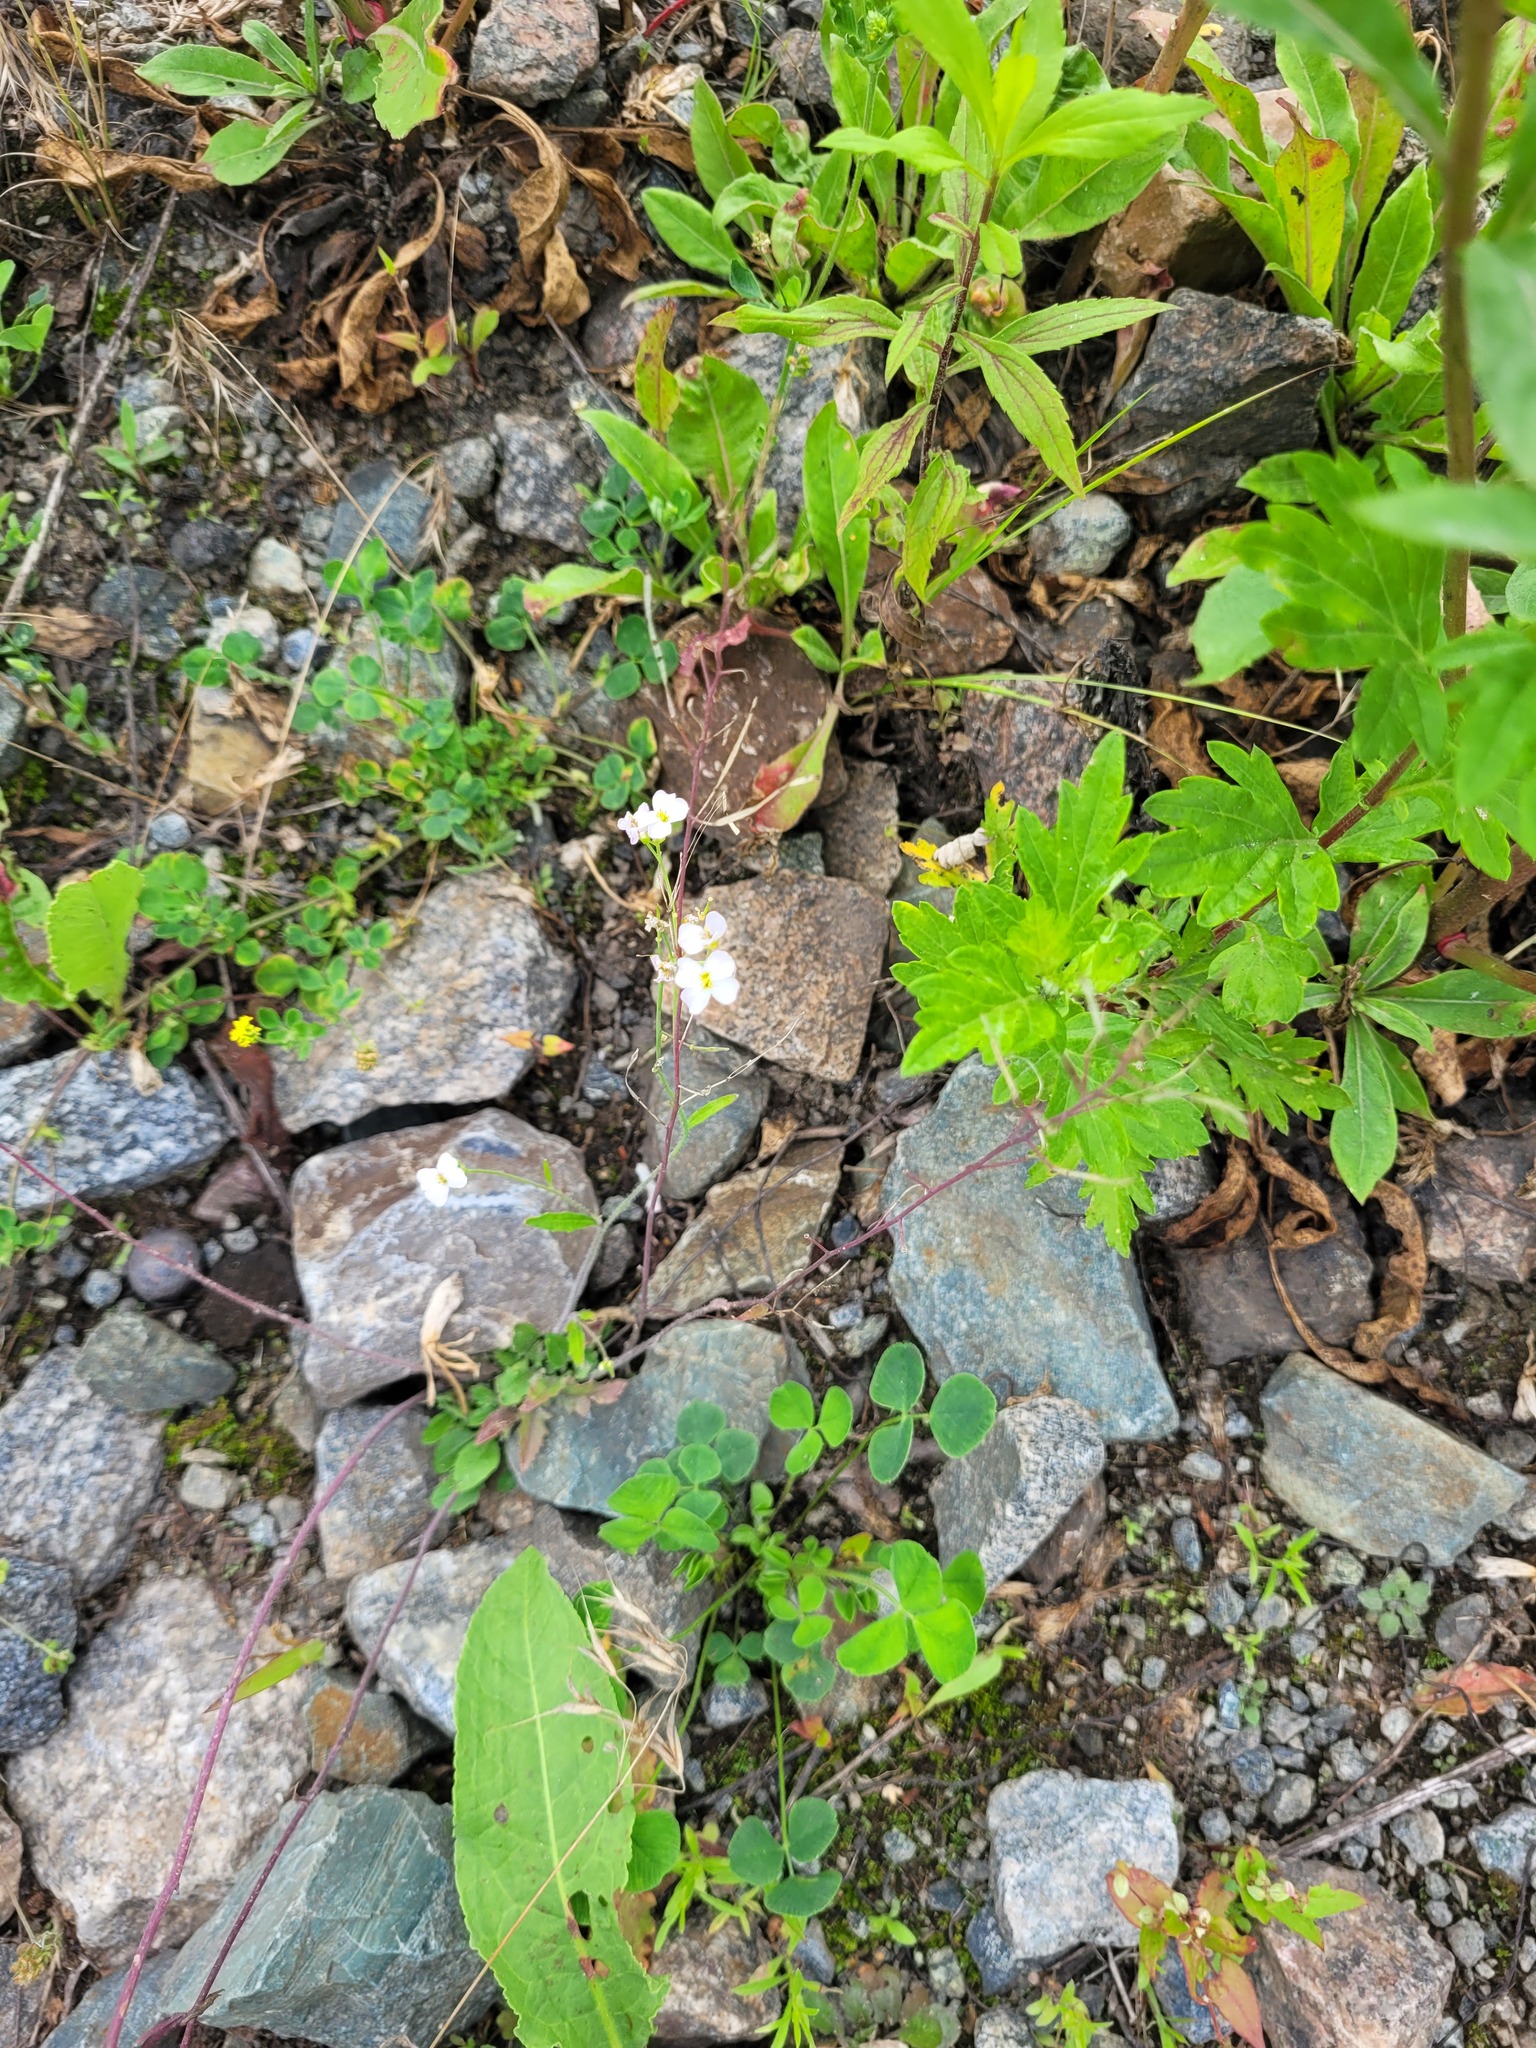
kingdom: Plantae
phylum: Tracheophyta
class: Magnoliopsida
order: Brassicales
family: Brassicaceae
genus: Arabidopsis
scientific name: Arabidopsis arenosa
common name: Sand rock-cress
